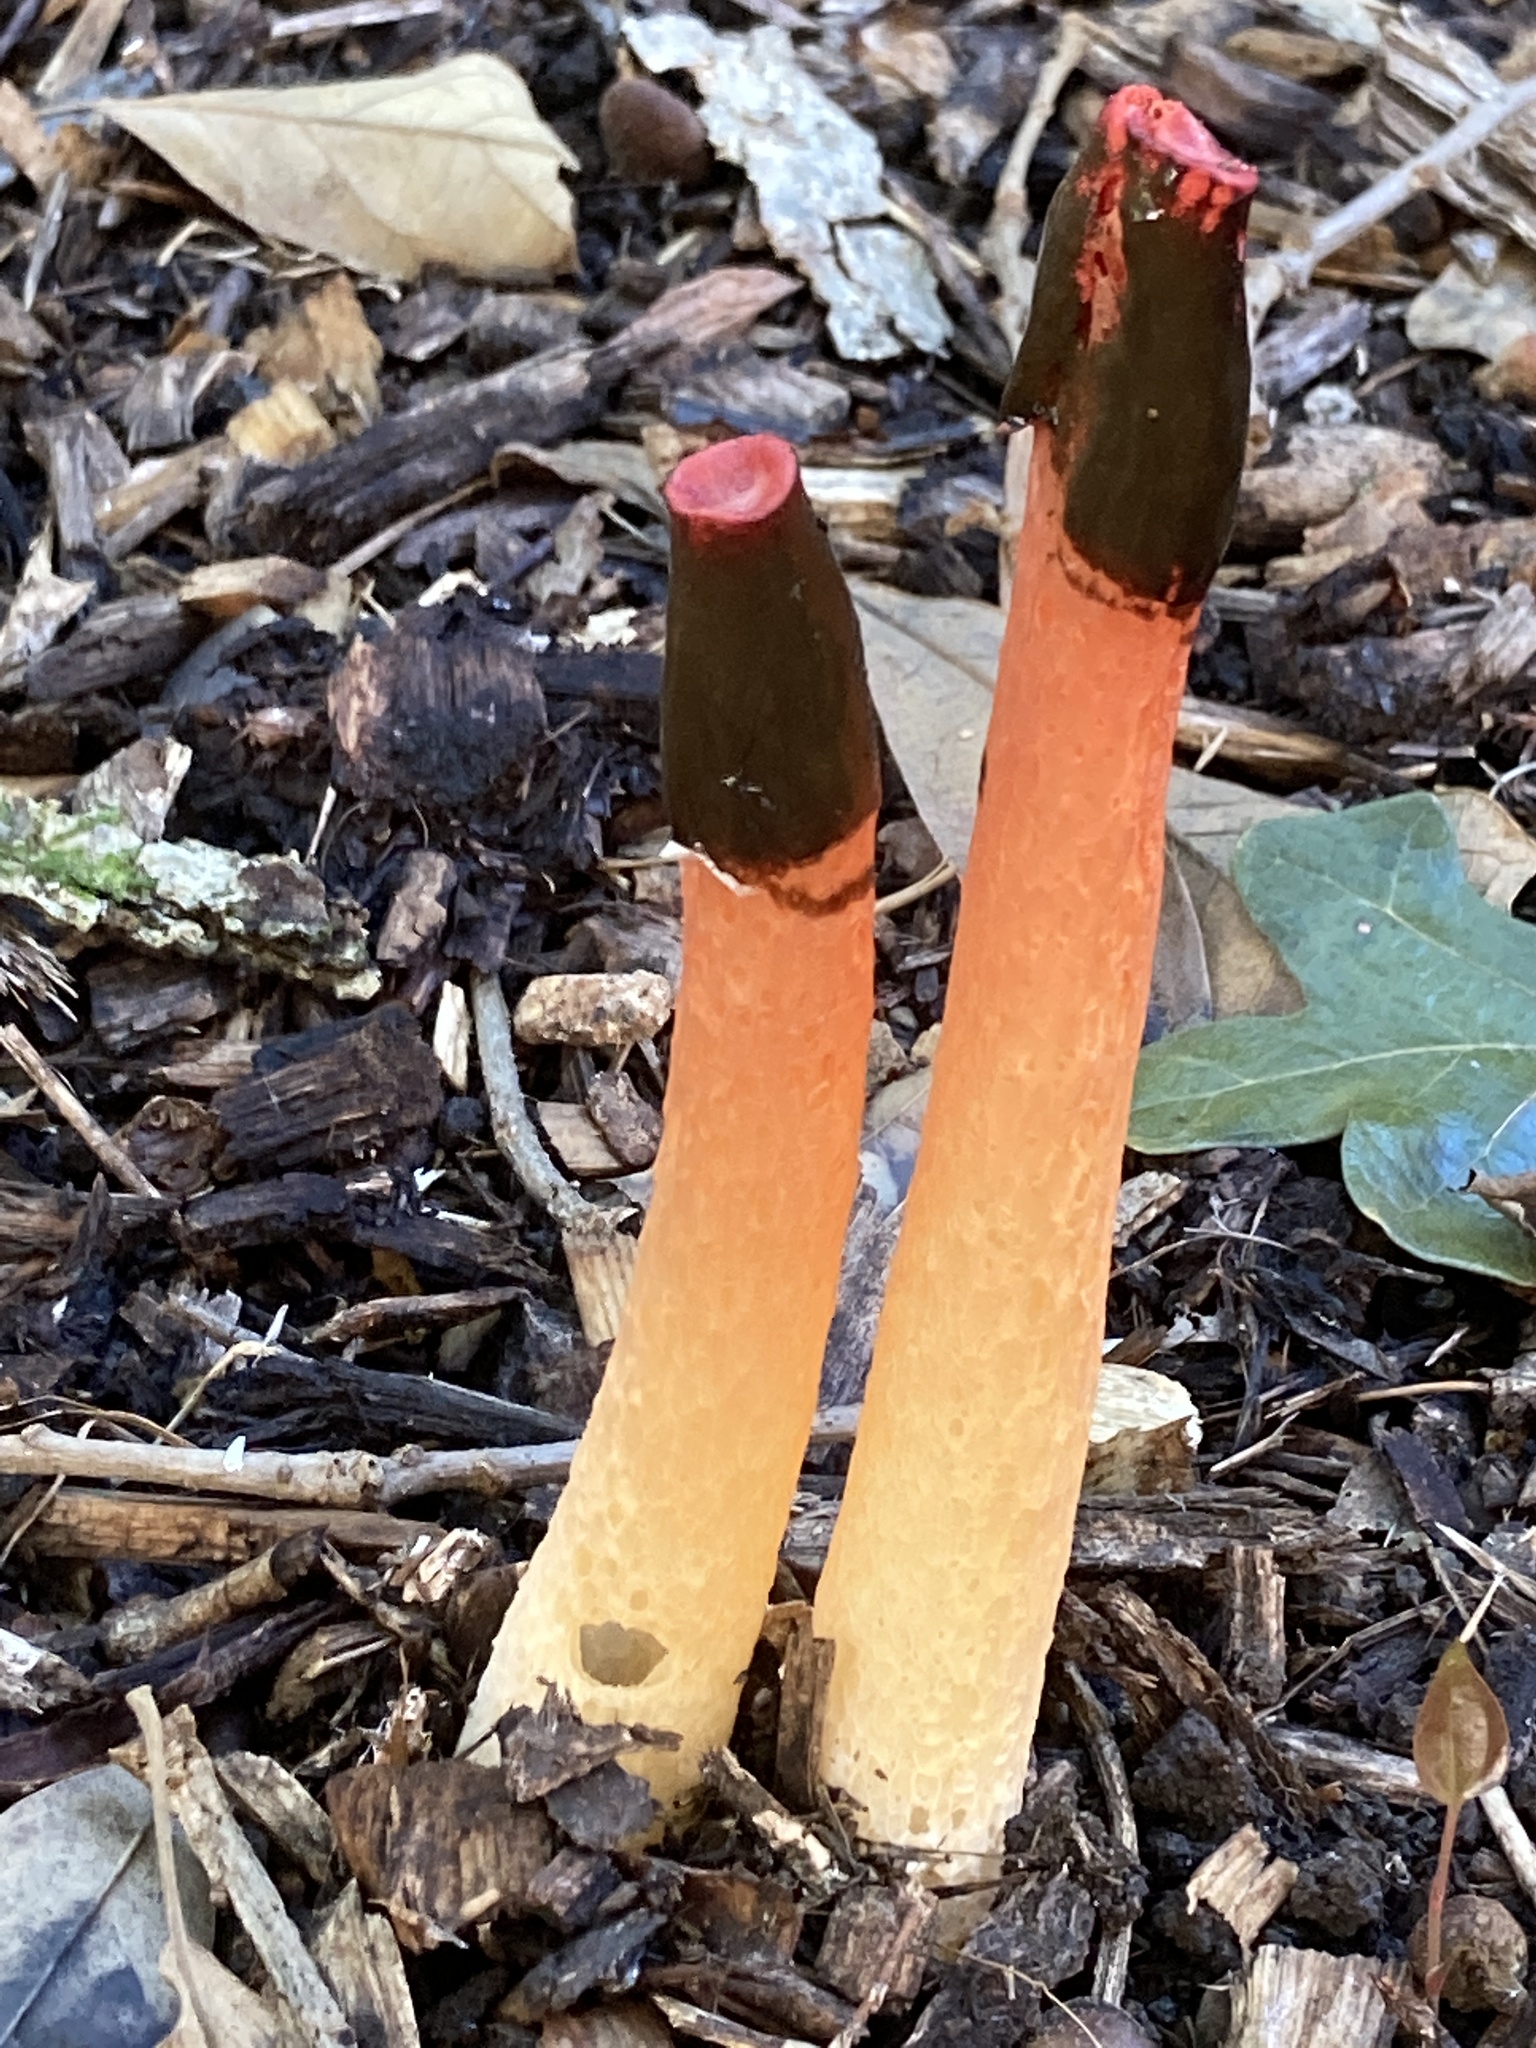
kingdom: Fungi
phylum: Basidiomycota
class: Agaricomycetes
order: Phallales
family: Phallaceae
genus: Phallus
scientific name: Phallus rugulosus
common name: Wrinkly stinkhorn
